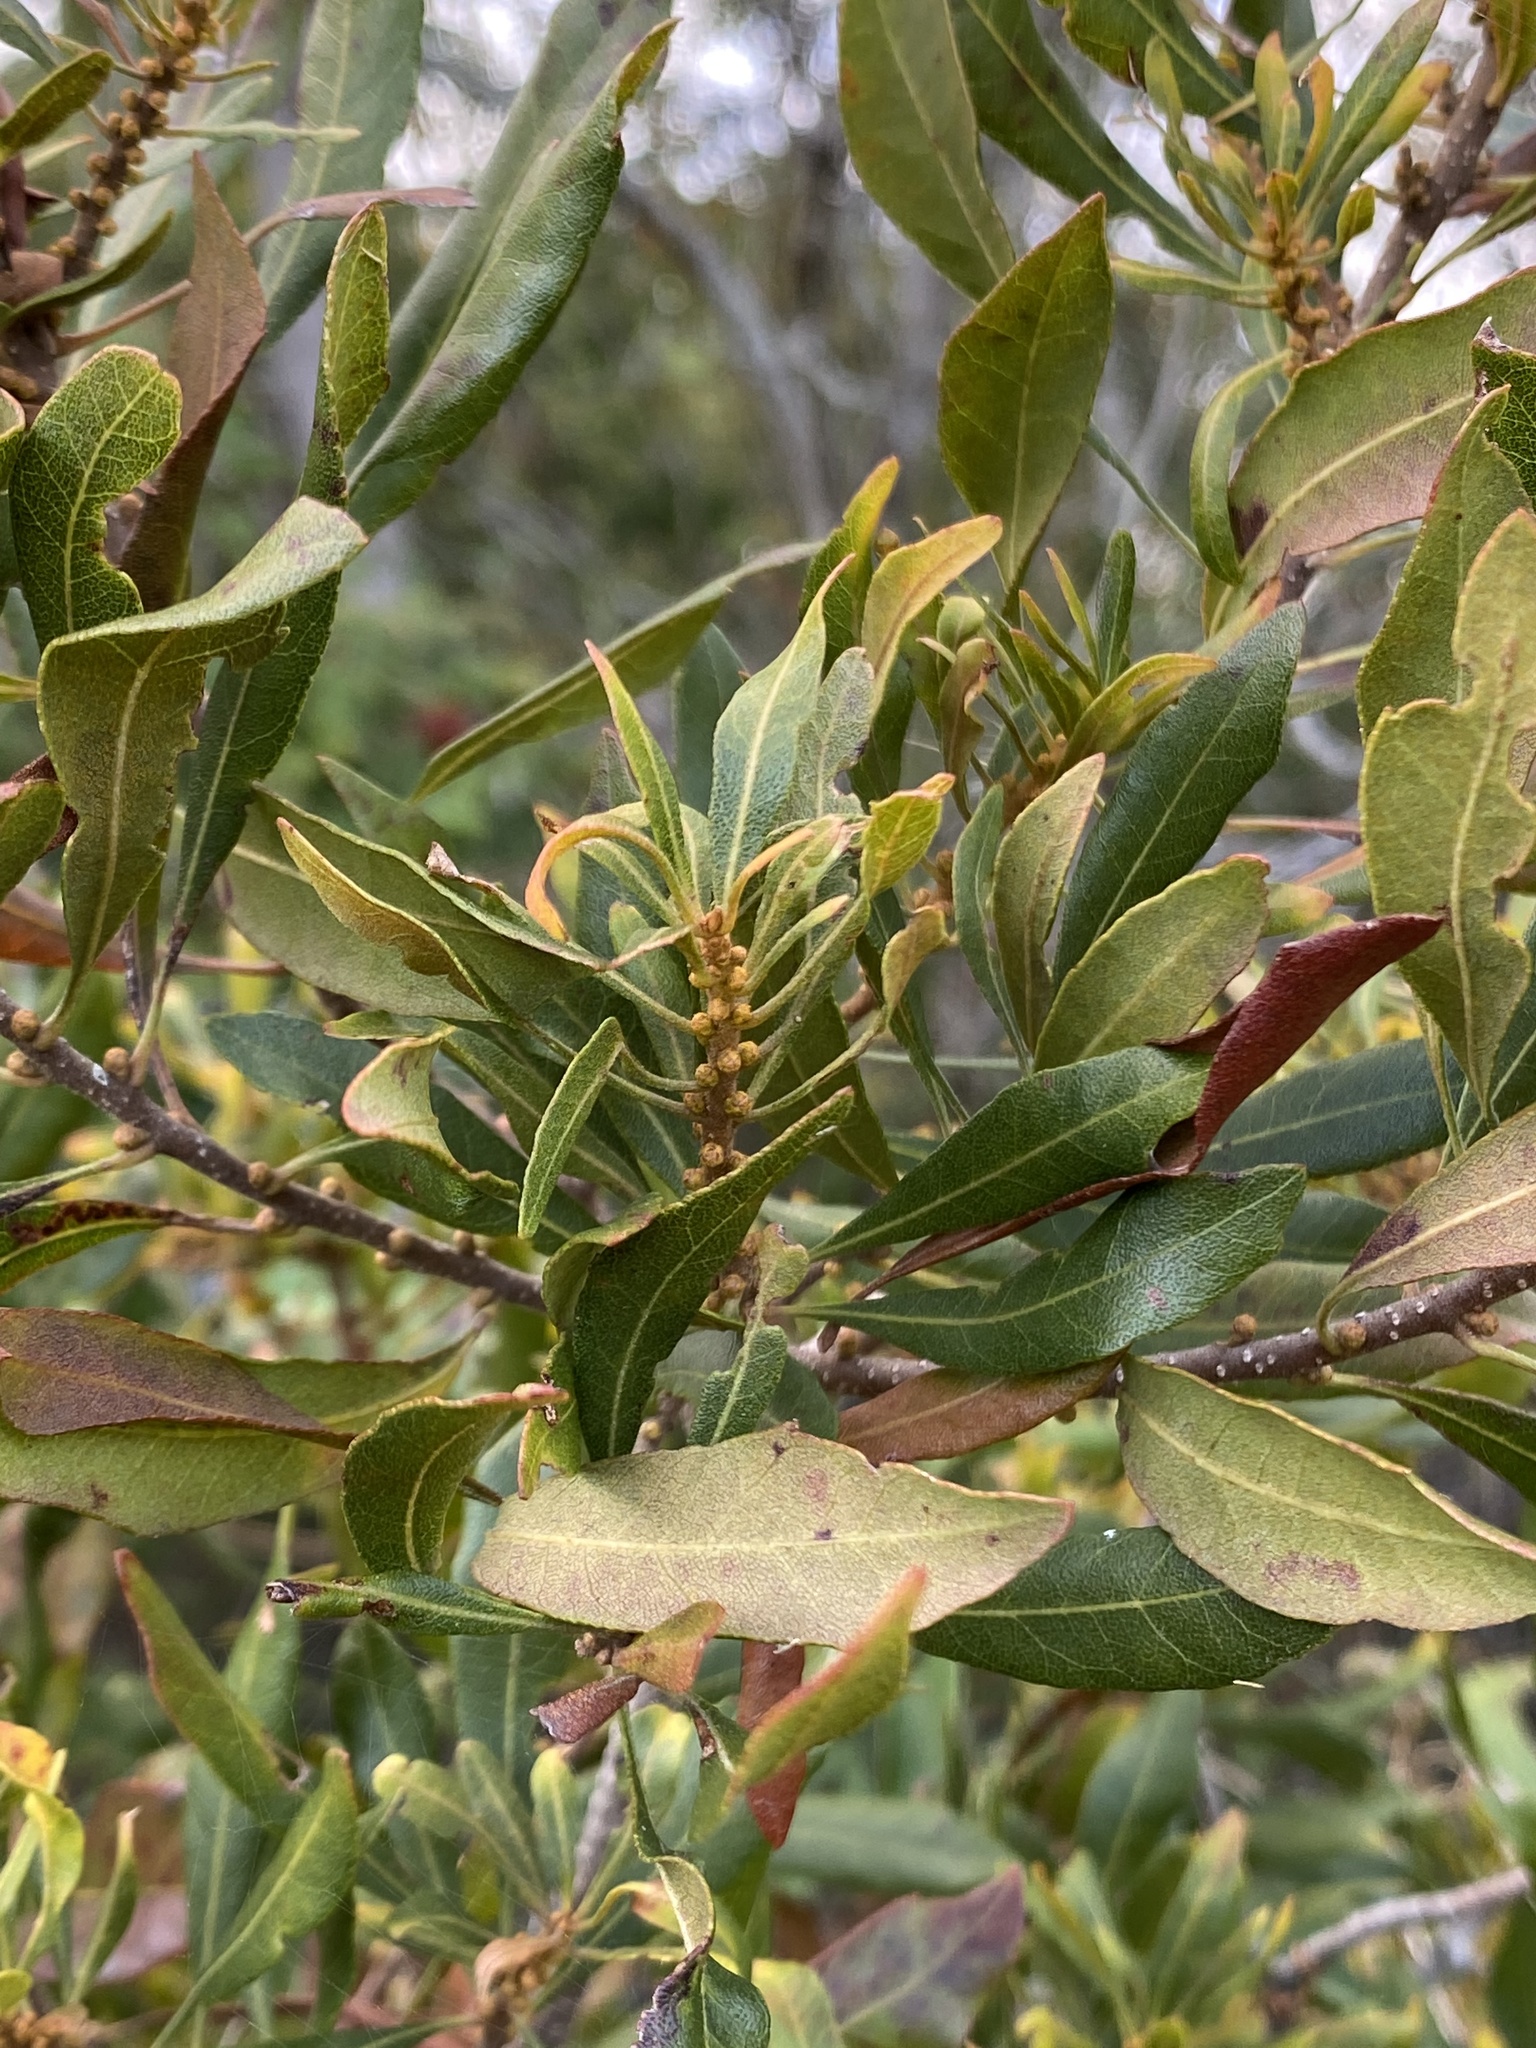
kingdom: Plantae
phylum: Tracheophyta
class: Magnoliopsida
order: Fagales
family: Myricaceae
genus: Morella
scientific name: Morella cerifera
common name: Wax myrtle
